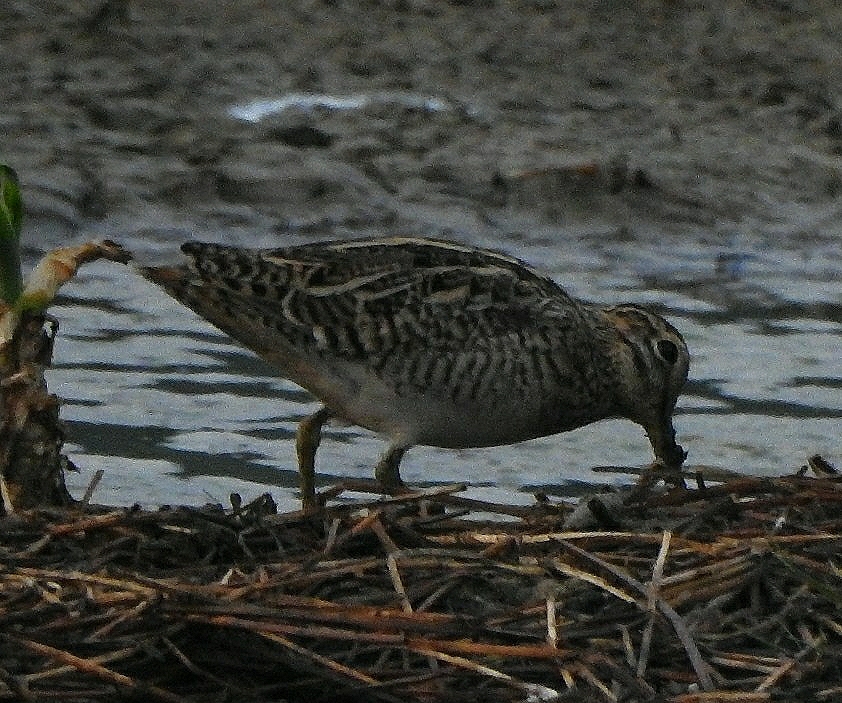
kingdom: Animalia
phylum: Chordata
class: Aves
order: Charadriiformes
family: Scolopacidae
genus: Gallinago
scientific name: Gallinago gallinago
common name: Common snipe
